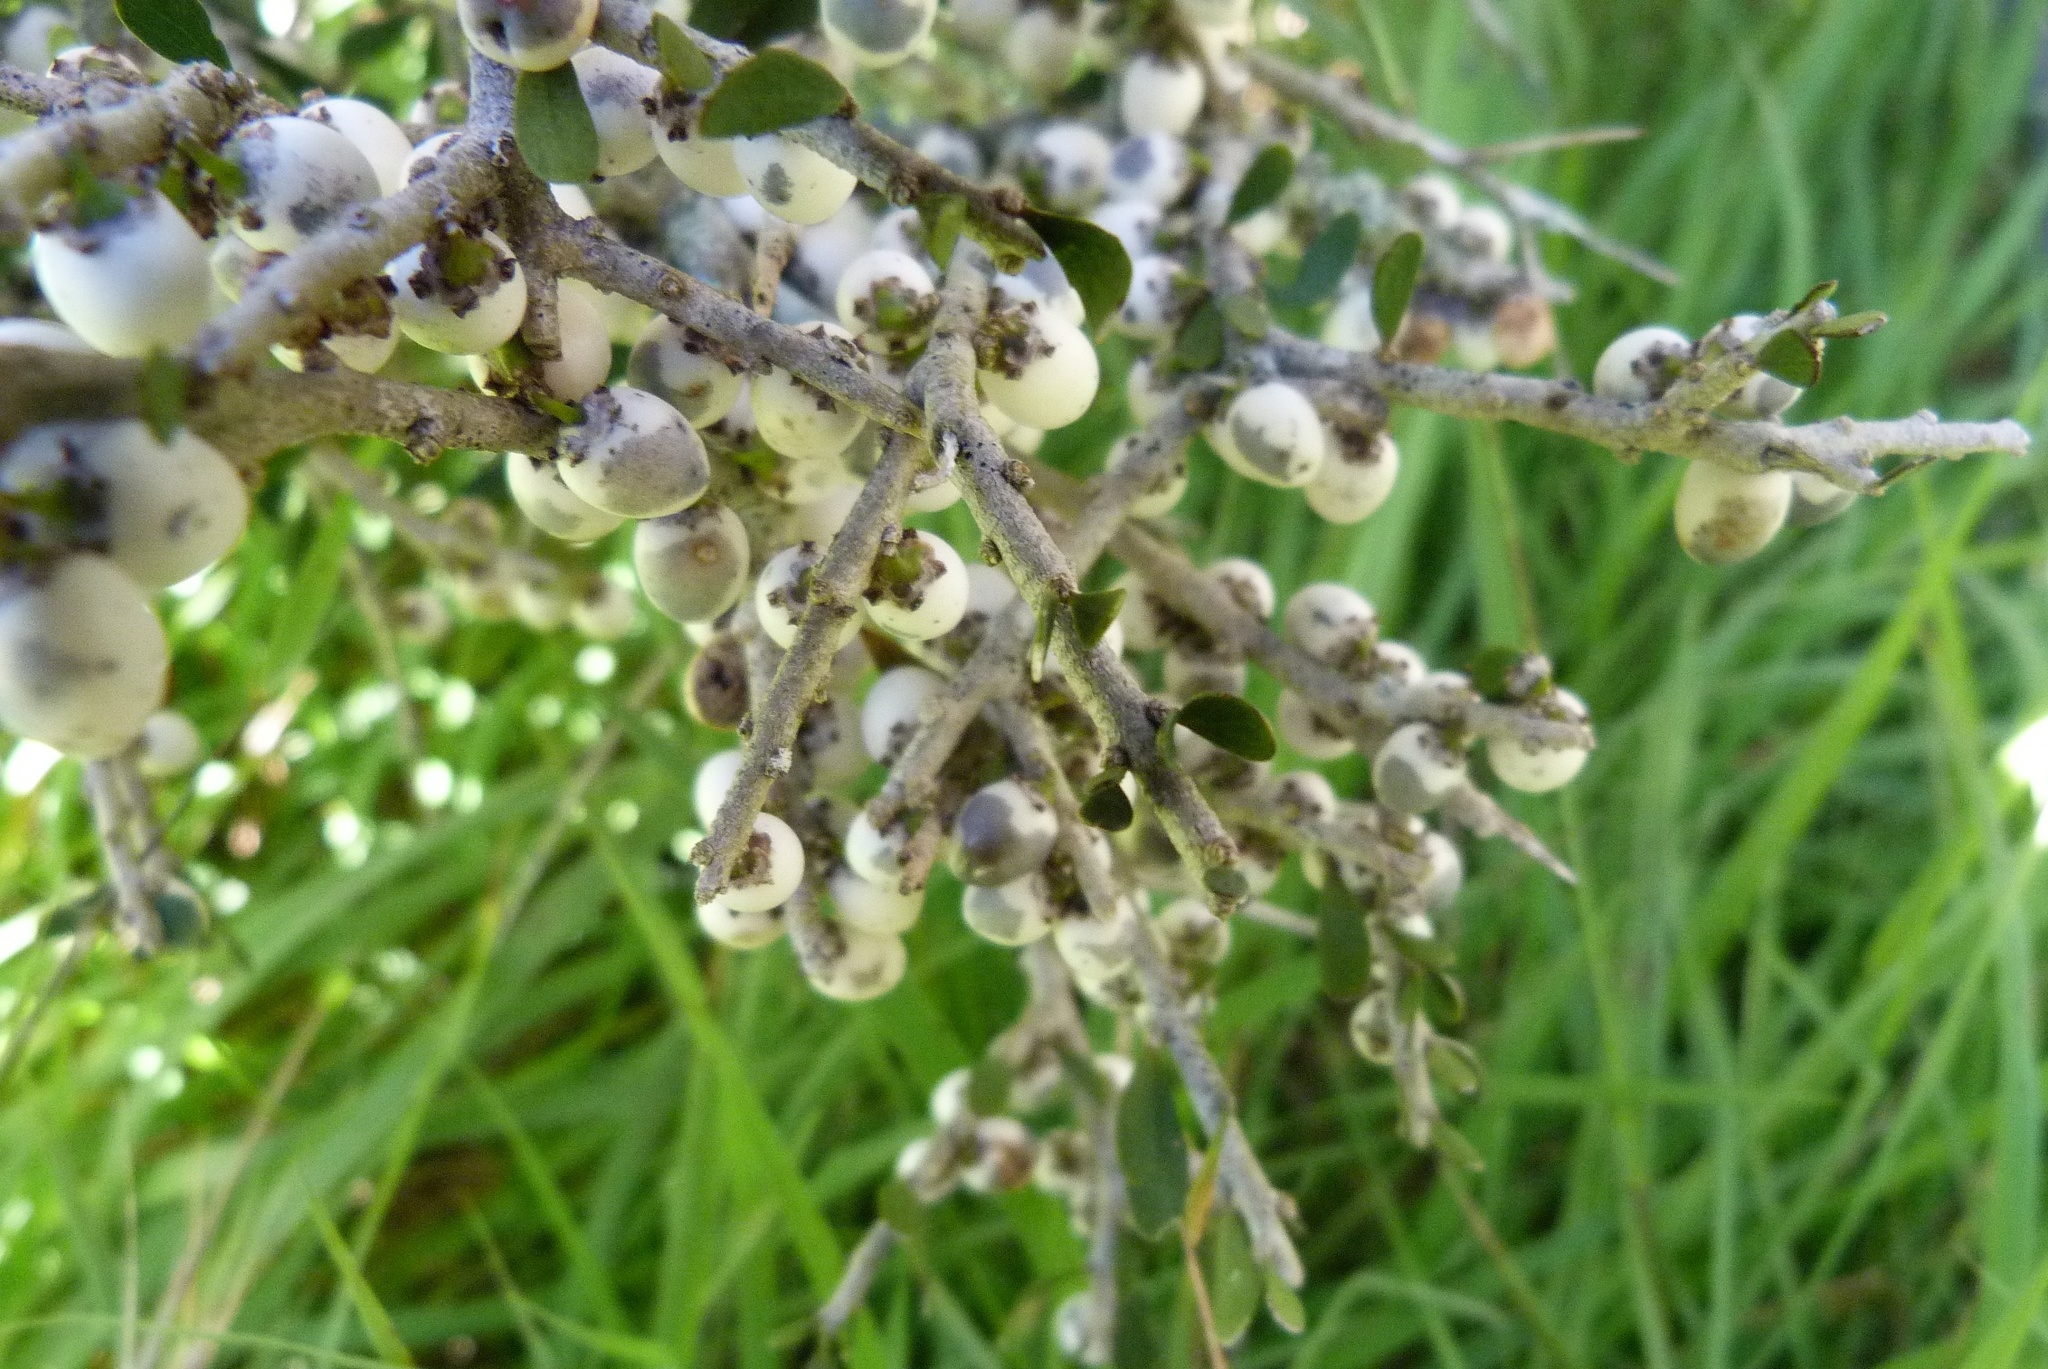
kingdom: Plantae
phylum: Tracheophyta
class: Magnoliopsida
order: Malpighiales
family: Violaceae
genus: Melicytus
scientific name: Melicytus alpinus
